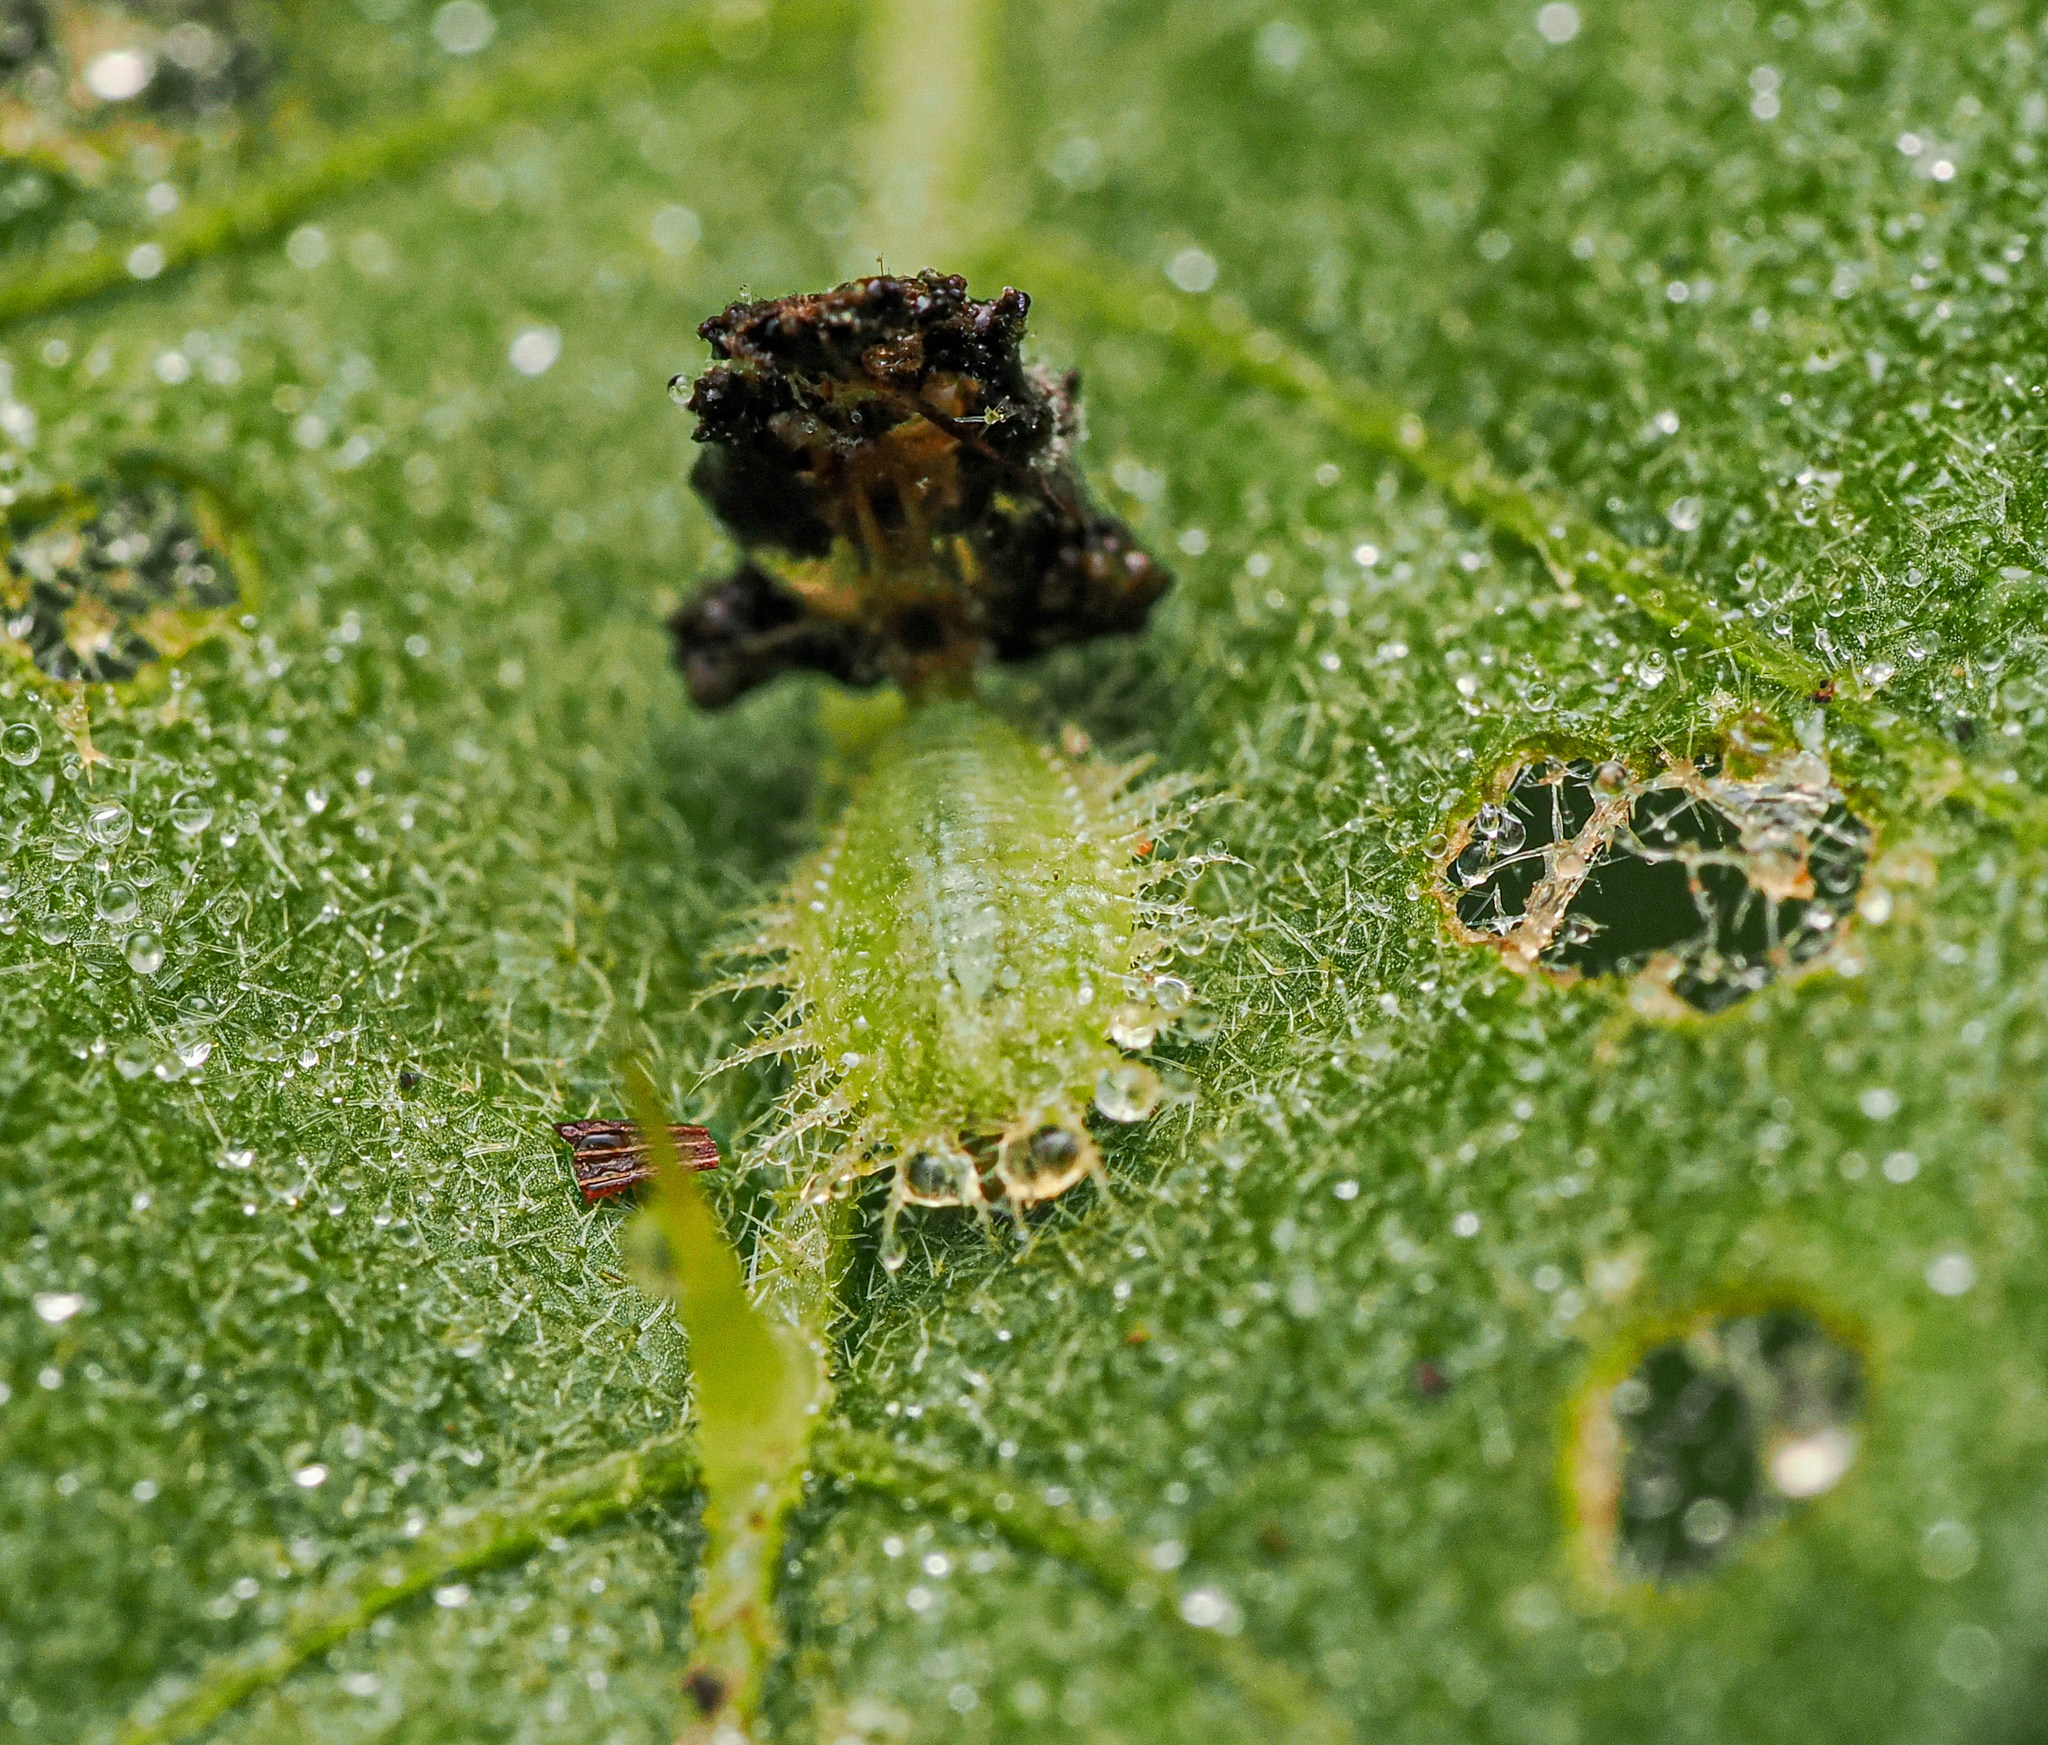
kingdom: Animalia
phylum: Arthropoda
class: Insecta
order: Coleoptera
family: Chrysomelidae
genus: Gratiana
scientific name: Gratiana pallidula
